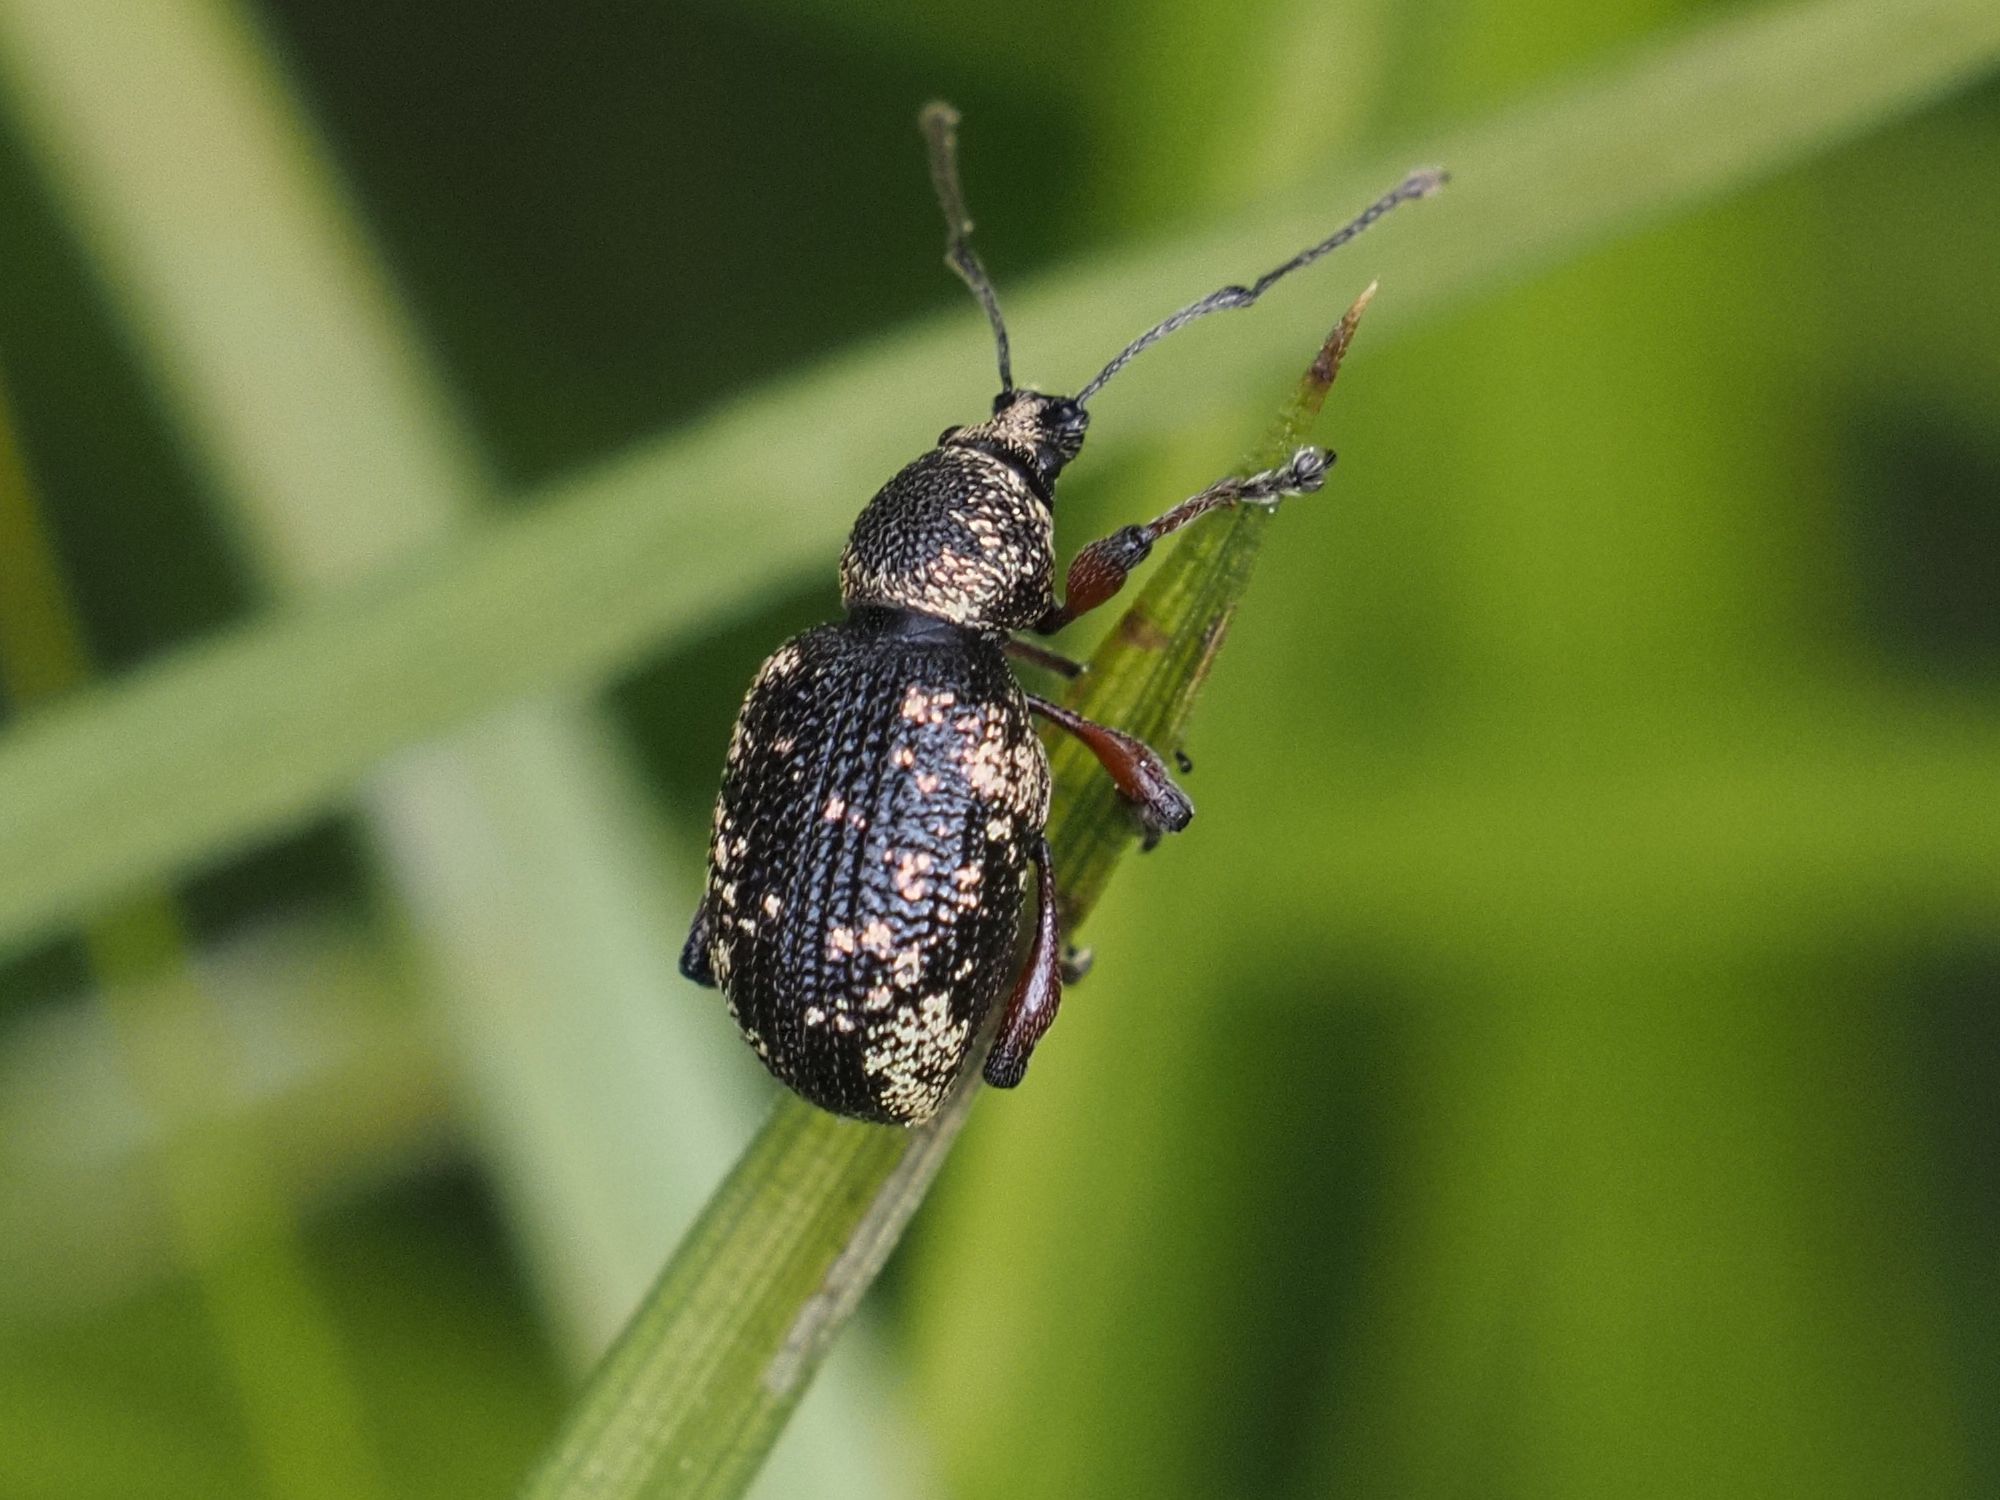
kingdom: Animalia
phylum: Arthropoda
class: Insecta
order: Coleoptera
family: Curculionidae
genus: Otiorhynchus
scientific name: Otiorhynchus lepidopterus
